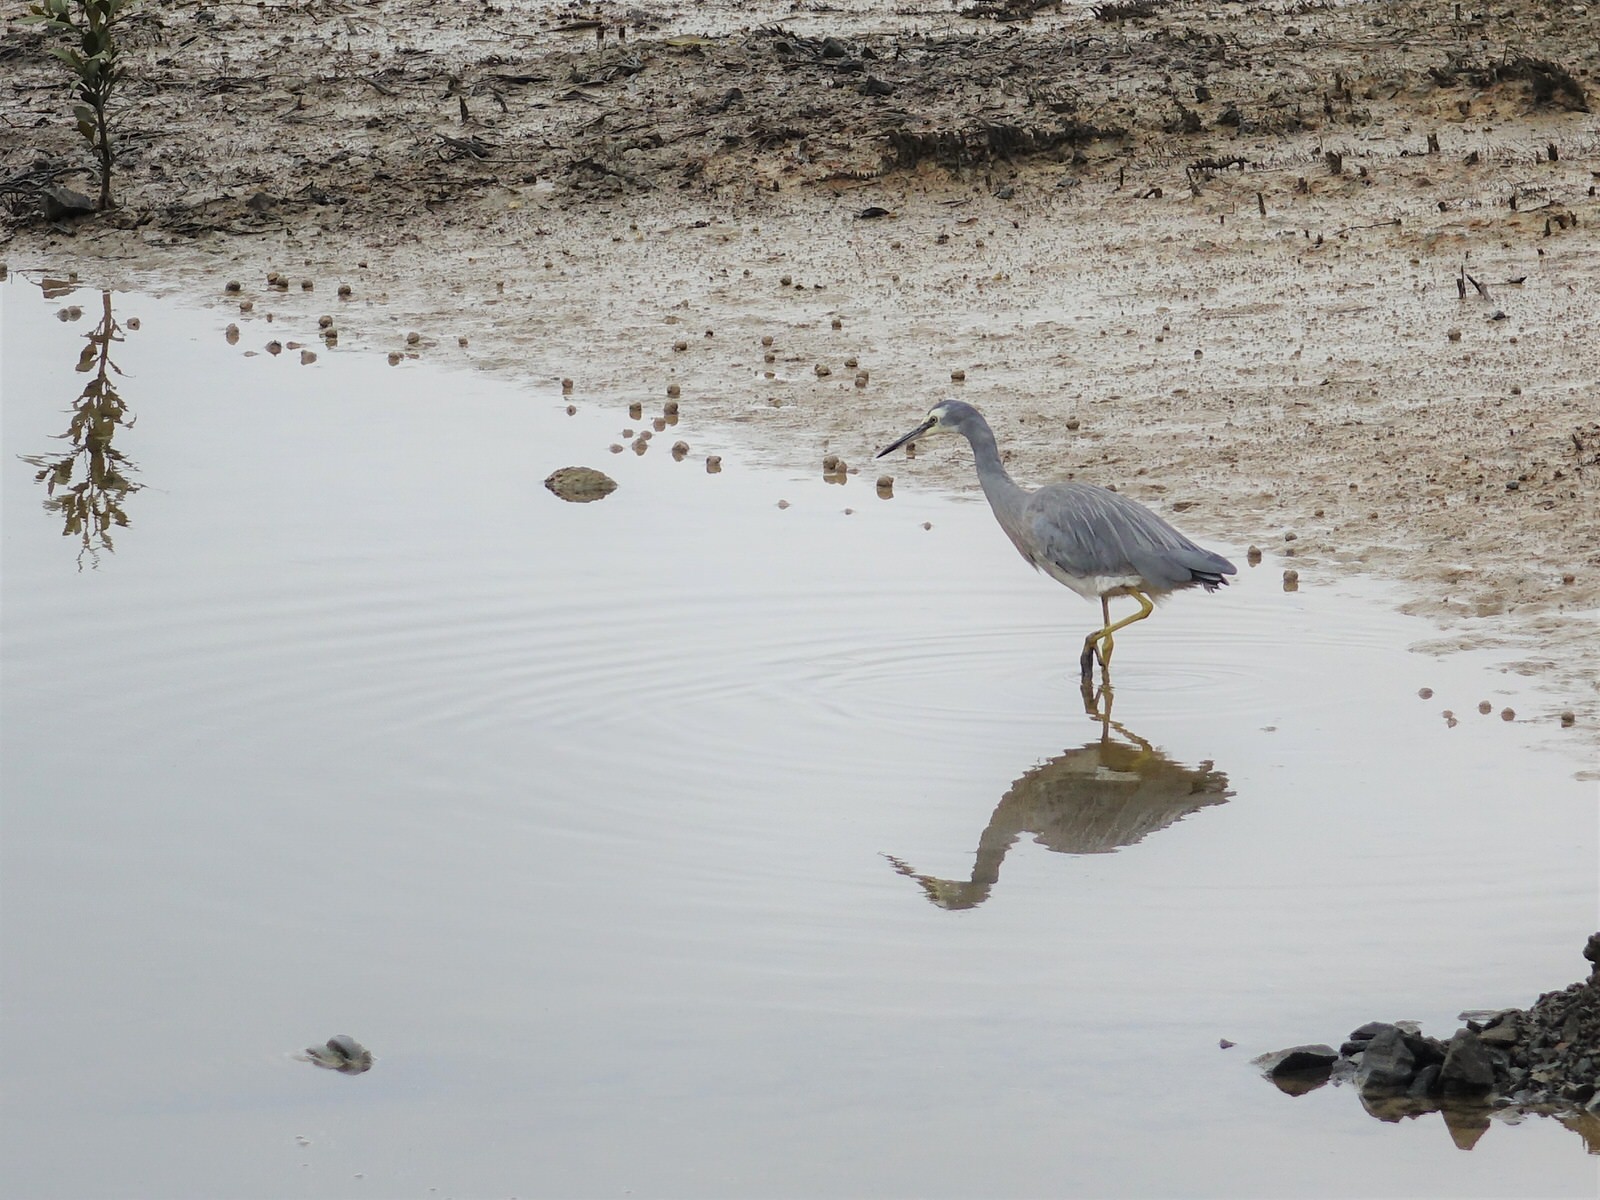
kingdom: Animalia
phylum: Chordata
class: Aves
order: Pelecaniformes
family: Ardeidae
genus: Egretta
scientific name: Egretta novaehollandiae
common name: White-faced heron
